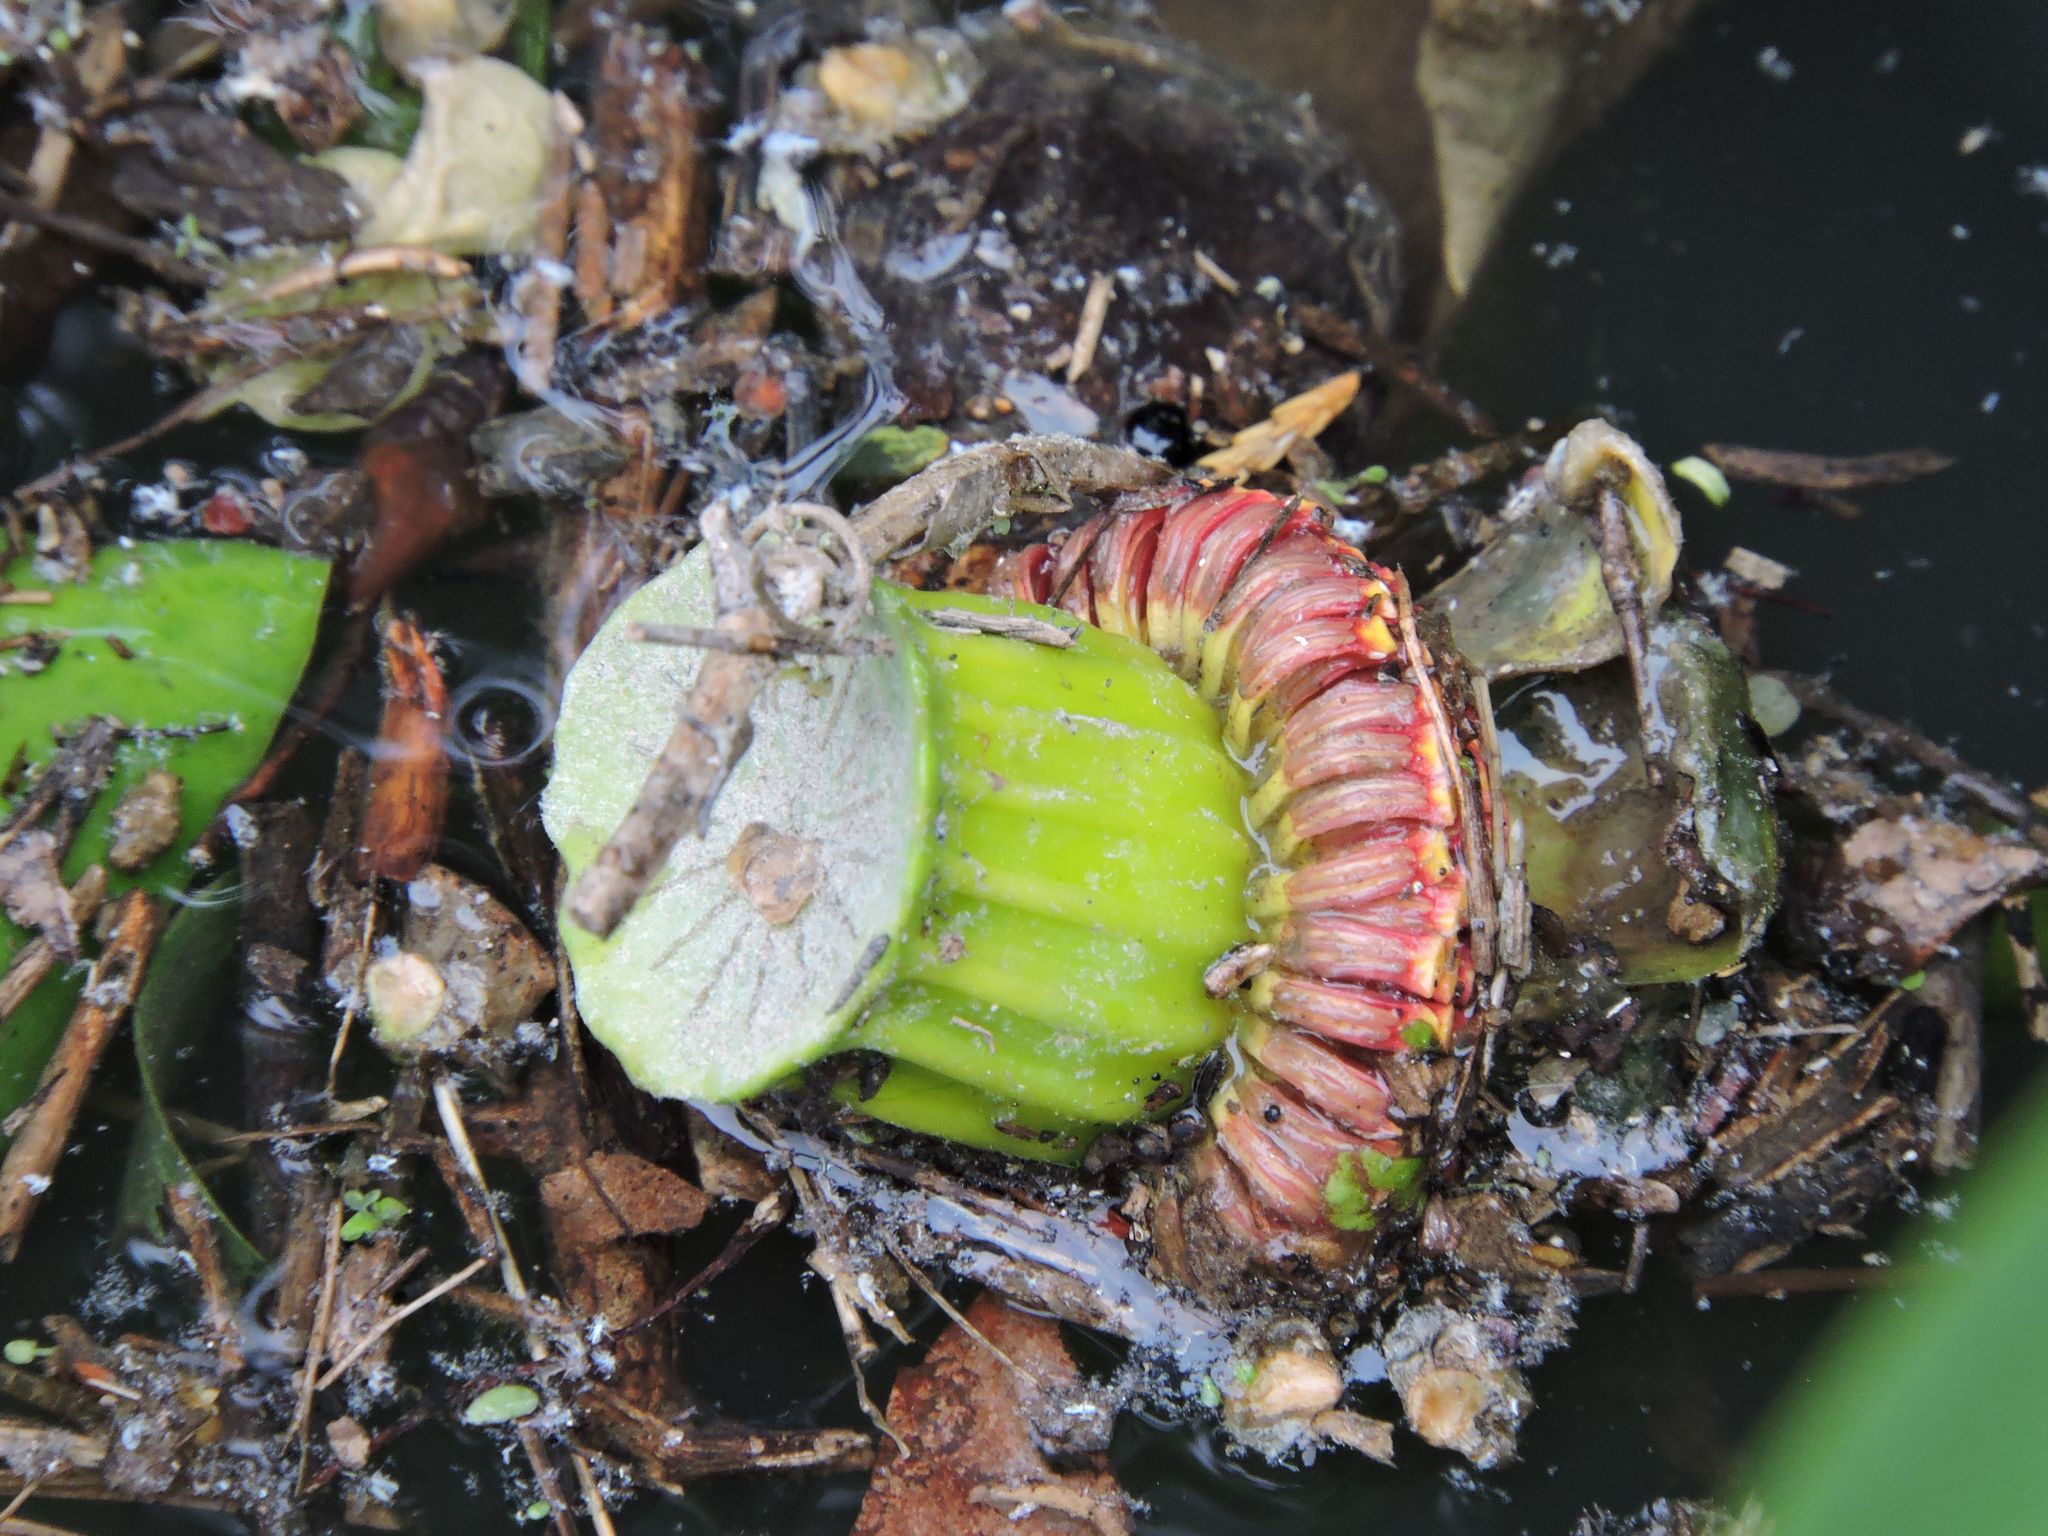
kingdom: Plantae
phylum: Tracheophyta
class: Magnoliopsida
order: Nymphaeales
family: Nymphaeaceae
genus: Nuphar
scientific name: Nuphar advena
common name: Spatter-dock
